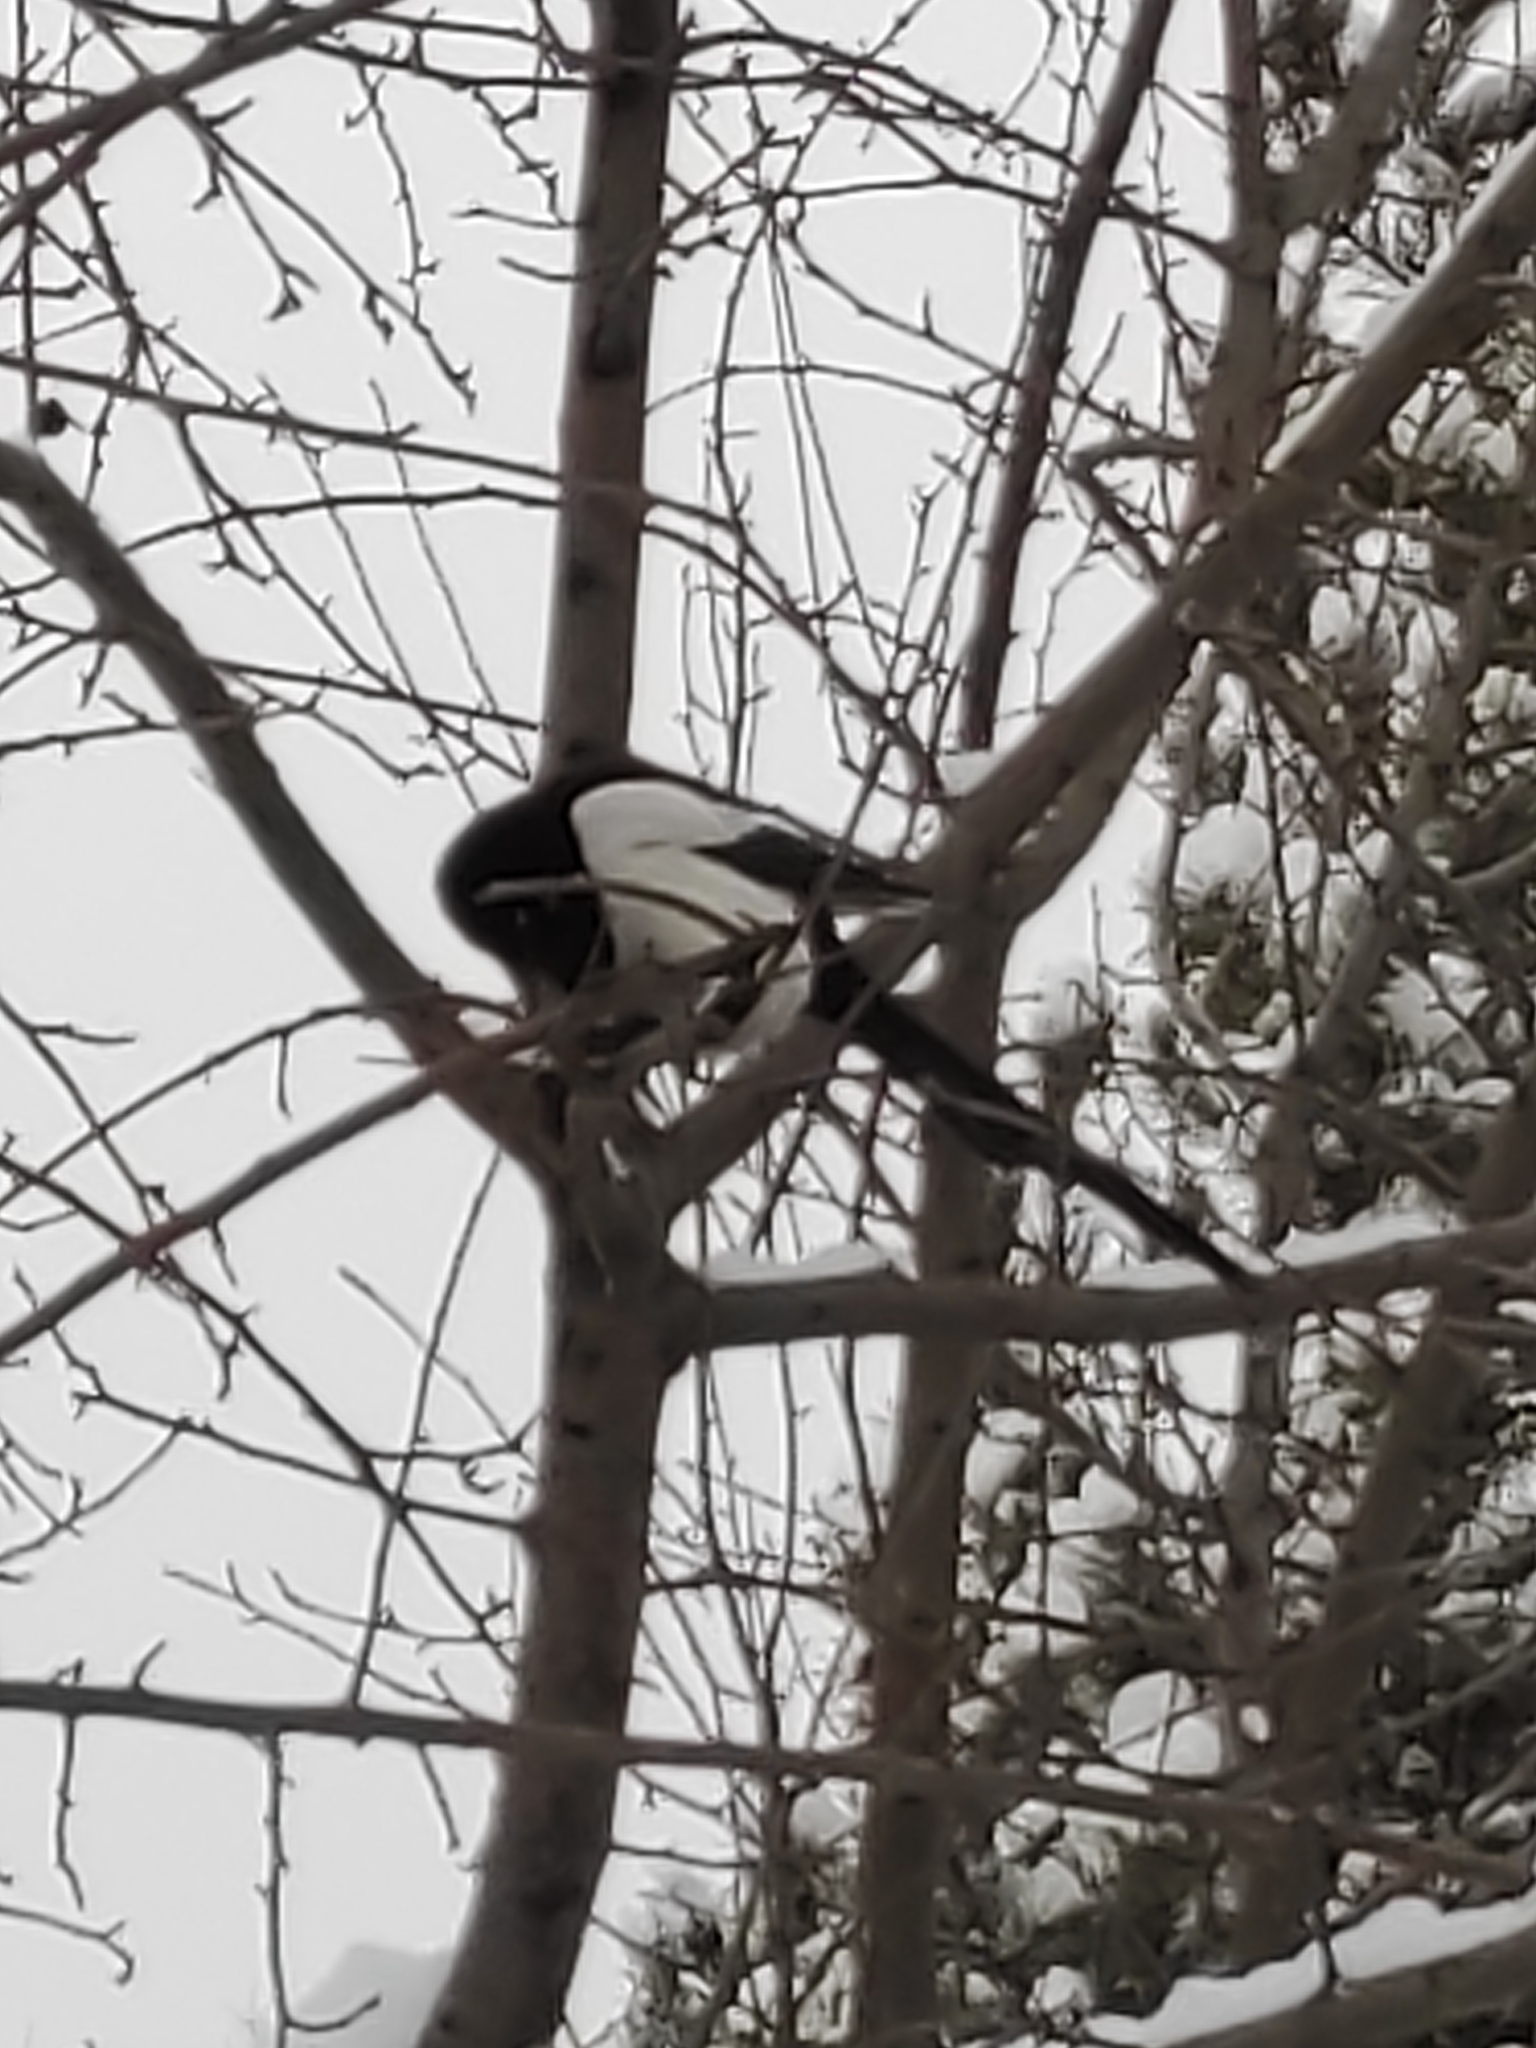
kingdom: Animalia
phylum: Chordata
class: Aves
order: Passeriformes
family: Corvidae
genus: Pica
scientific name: Pica pica
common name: Eurasian magpie
